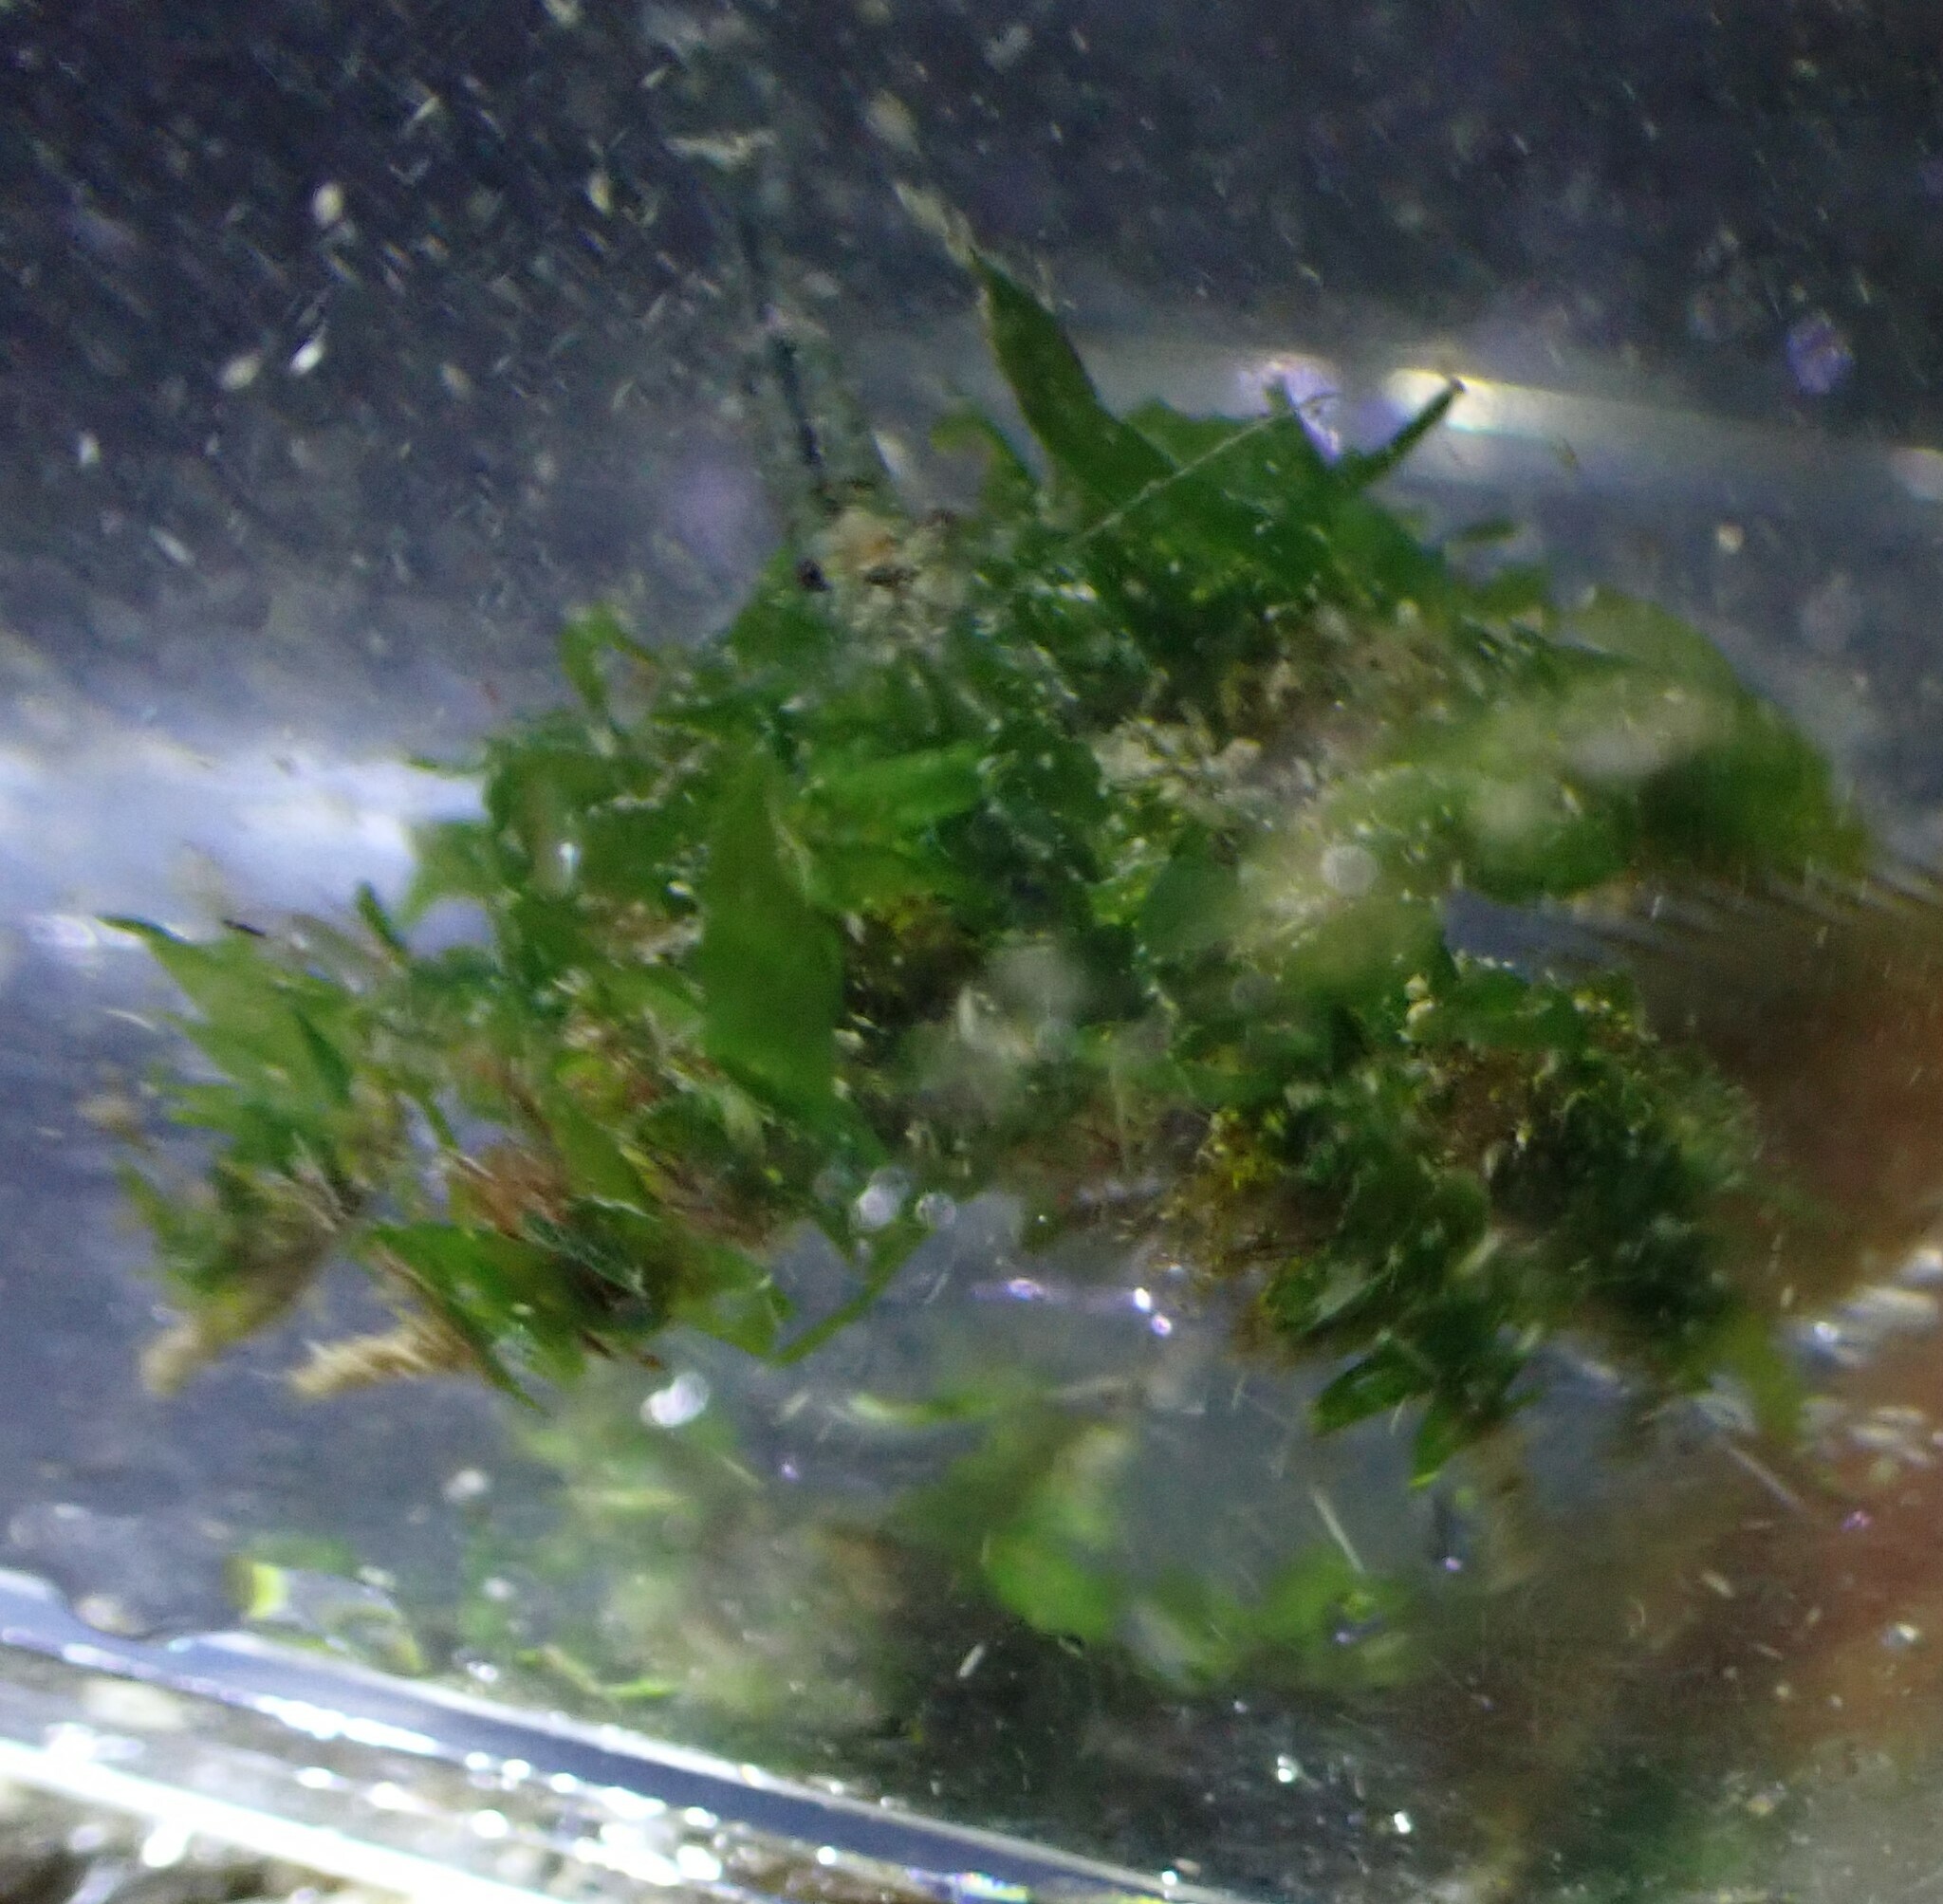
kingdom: Animalia
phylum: Arthropoda
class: Malacostraca
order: Decapoda
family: Oregoniidae
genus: Oregonia
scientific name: Oregonia gracilis
